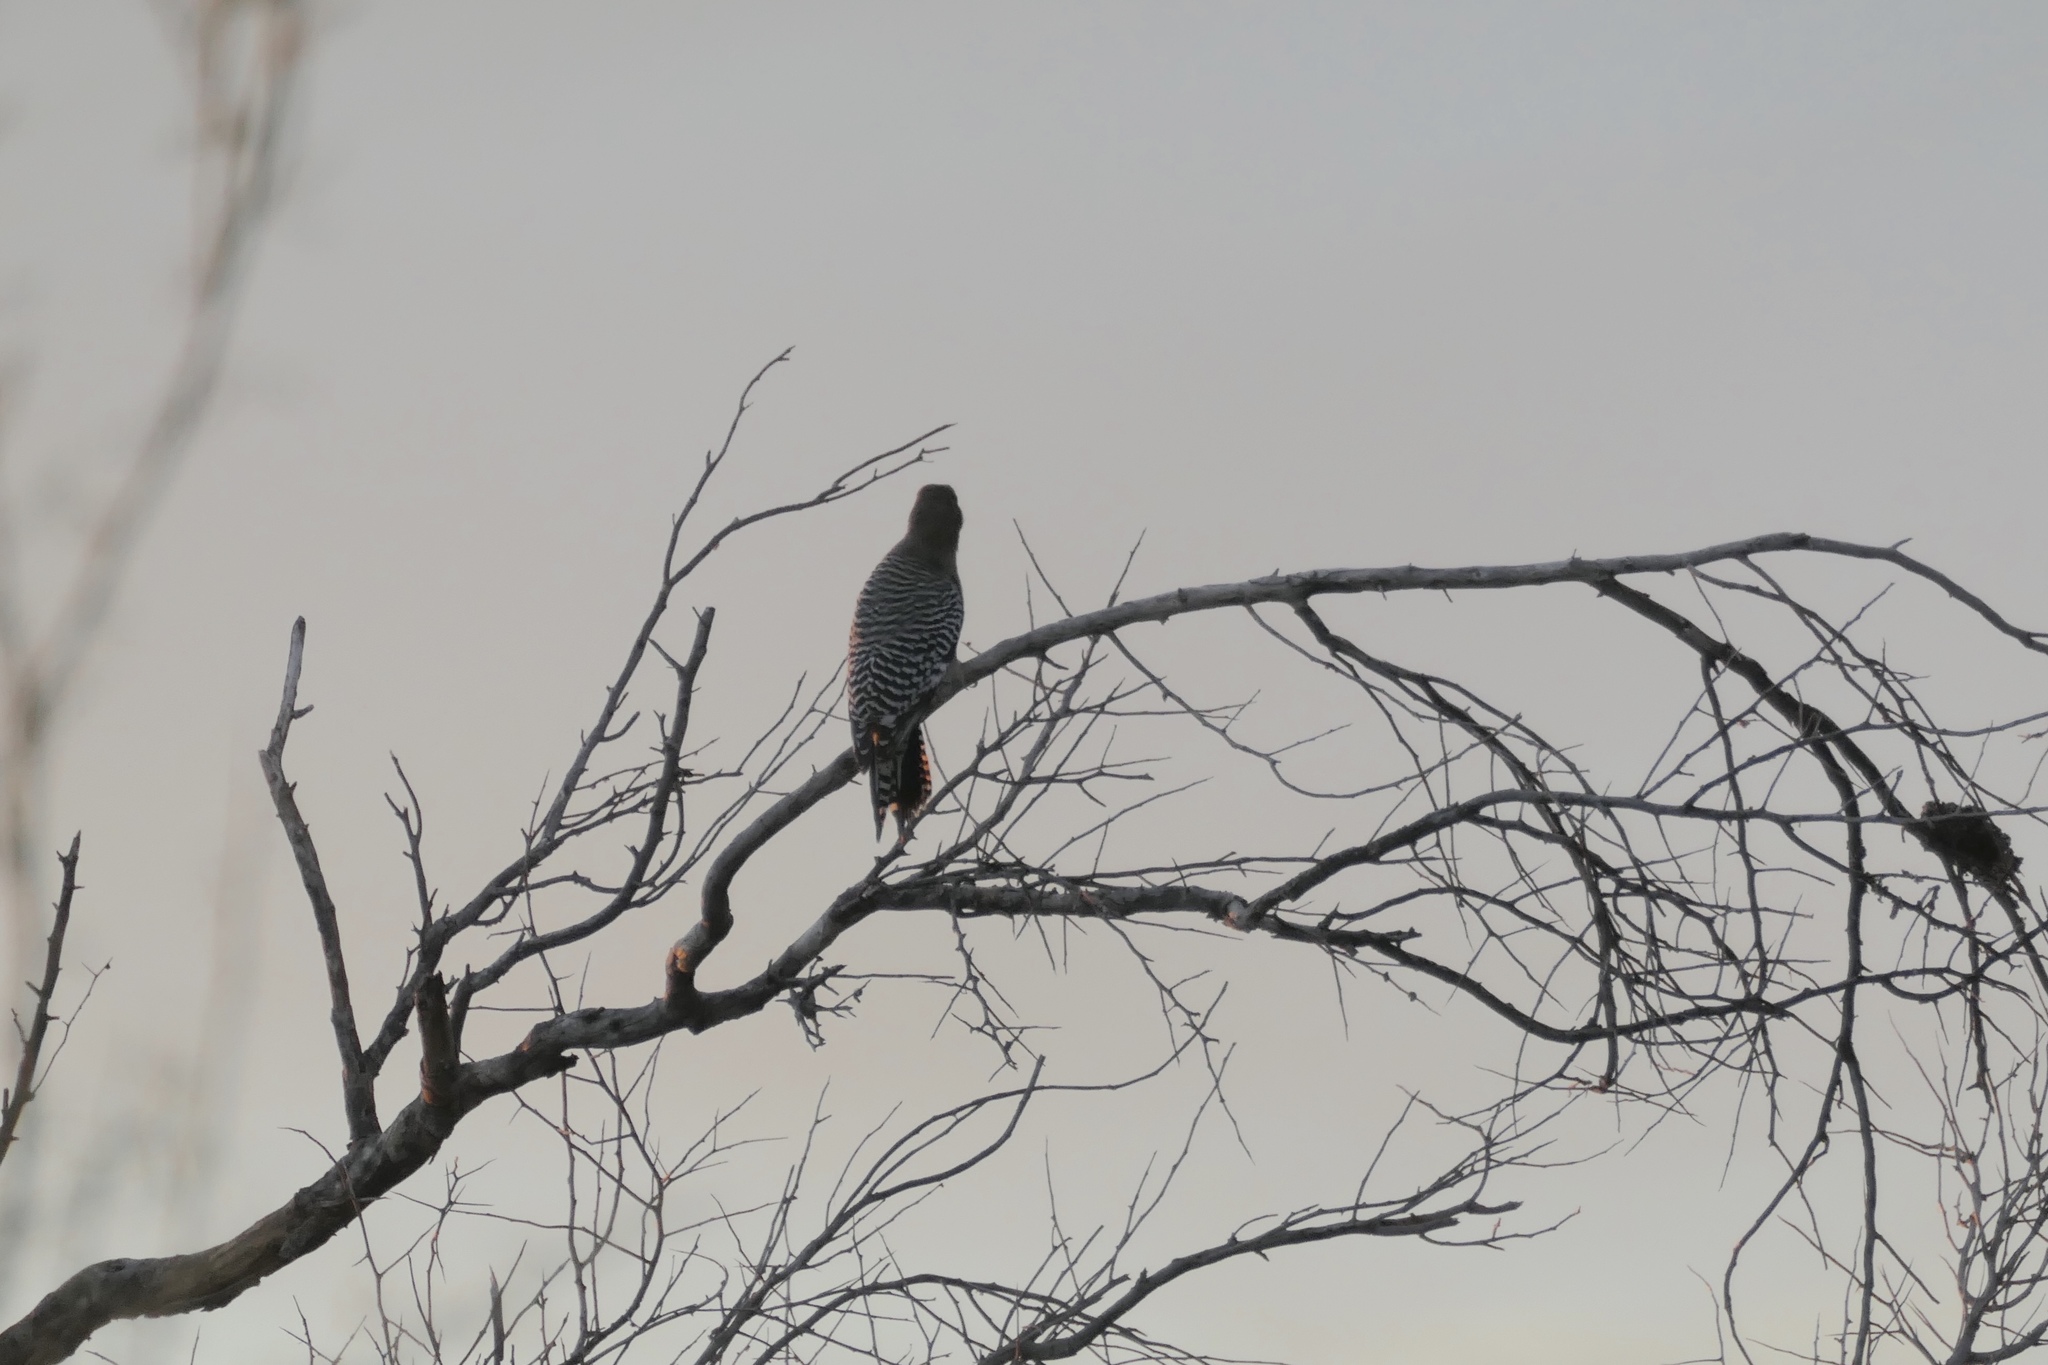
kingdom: Animalia
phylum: Chordata
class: Aves
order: Piciformes
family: Picidae
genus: Melanerpes
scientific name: Melanerpes uropygialis
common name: Gila woodpecker
